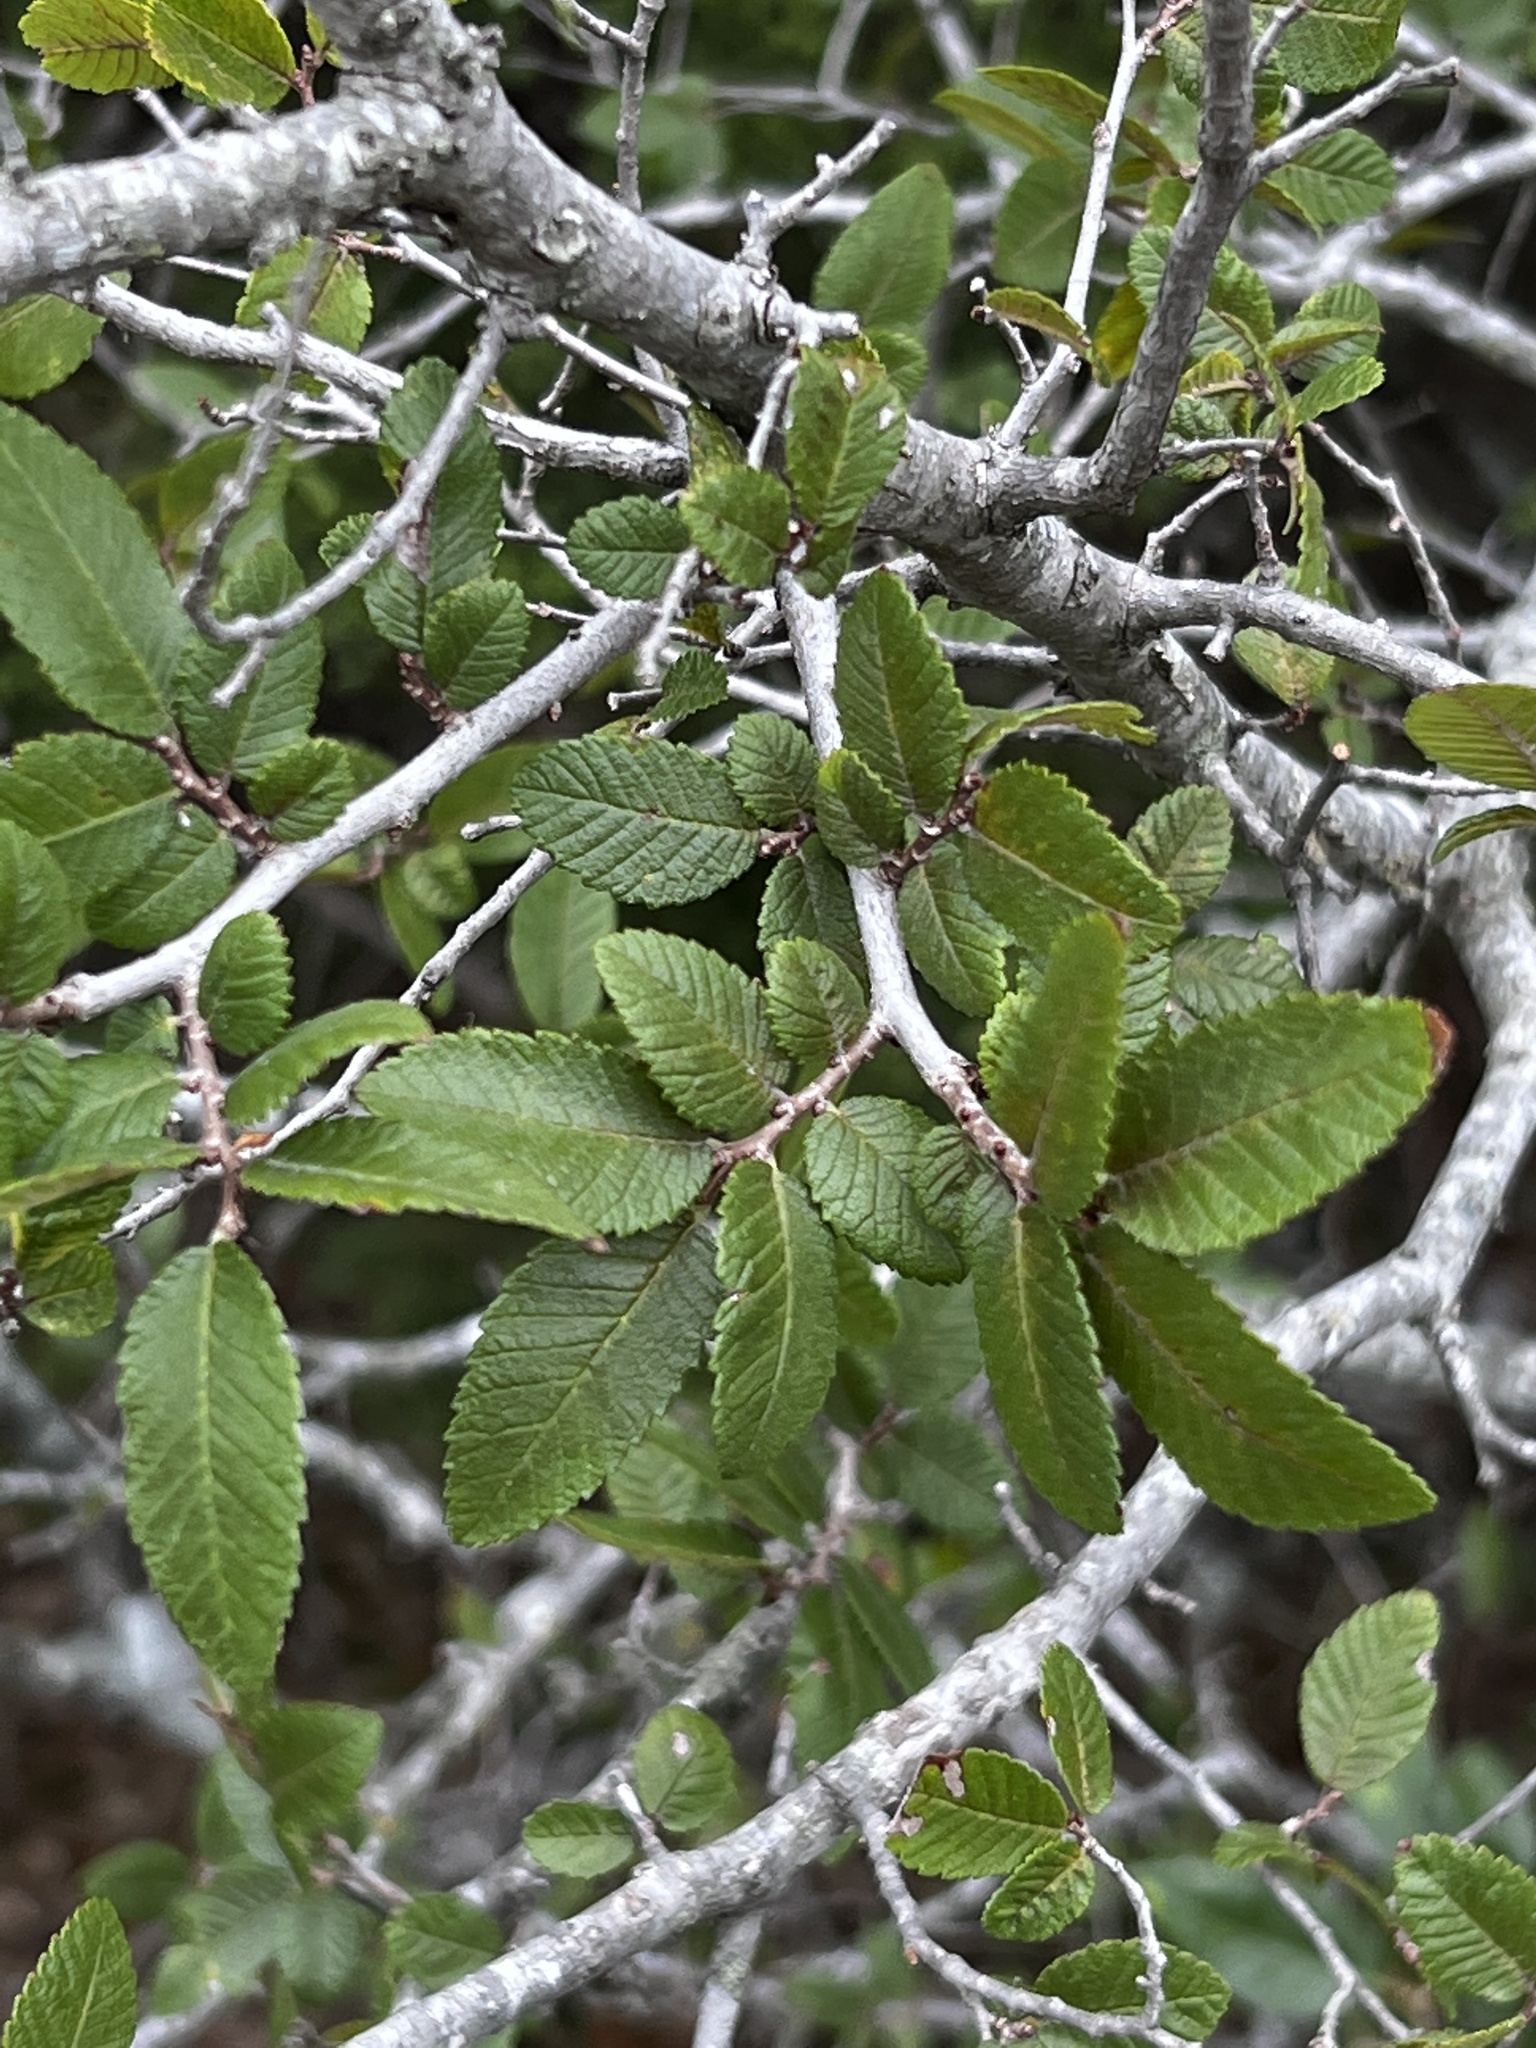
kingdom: Plantae
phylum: Tracheophyta
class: Magnoliopsida
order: Rosales
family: Ulmaceae
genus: Ulmus
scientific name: Ulmus crassifolia
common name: Basket elm
